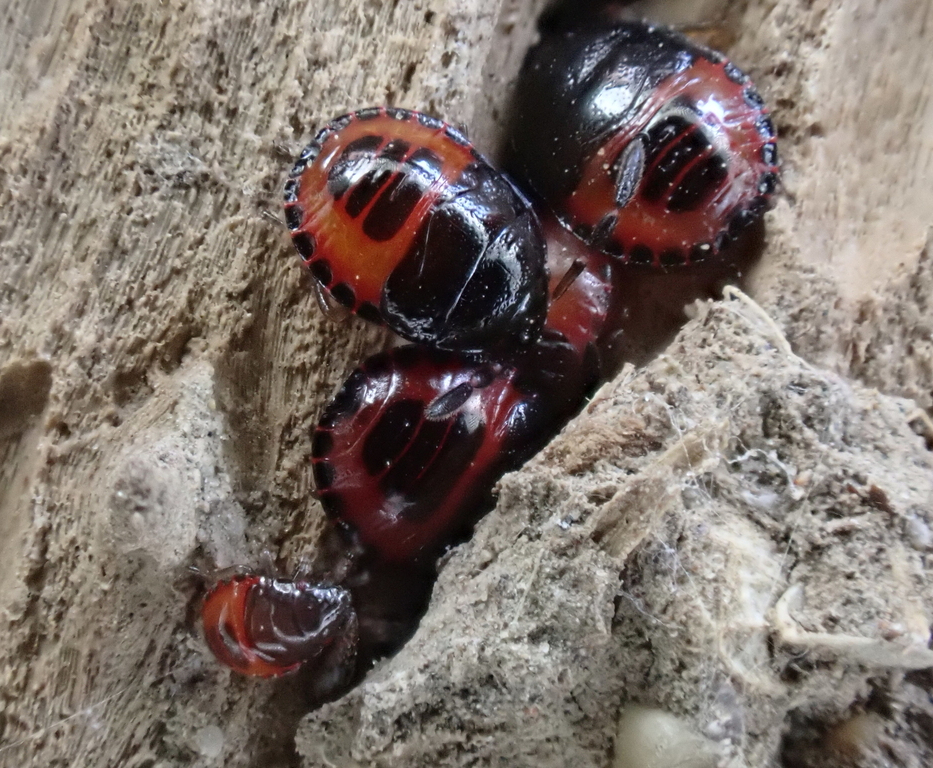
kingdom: Animalia
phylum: Arthropoda
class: Insecta
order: Hemiptera
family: Cydnidae
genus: Sehirus
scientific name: Sehirus cinctus
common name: White-margined burrower bug
